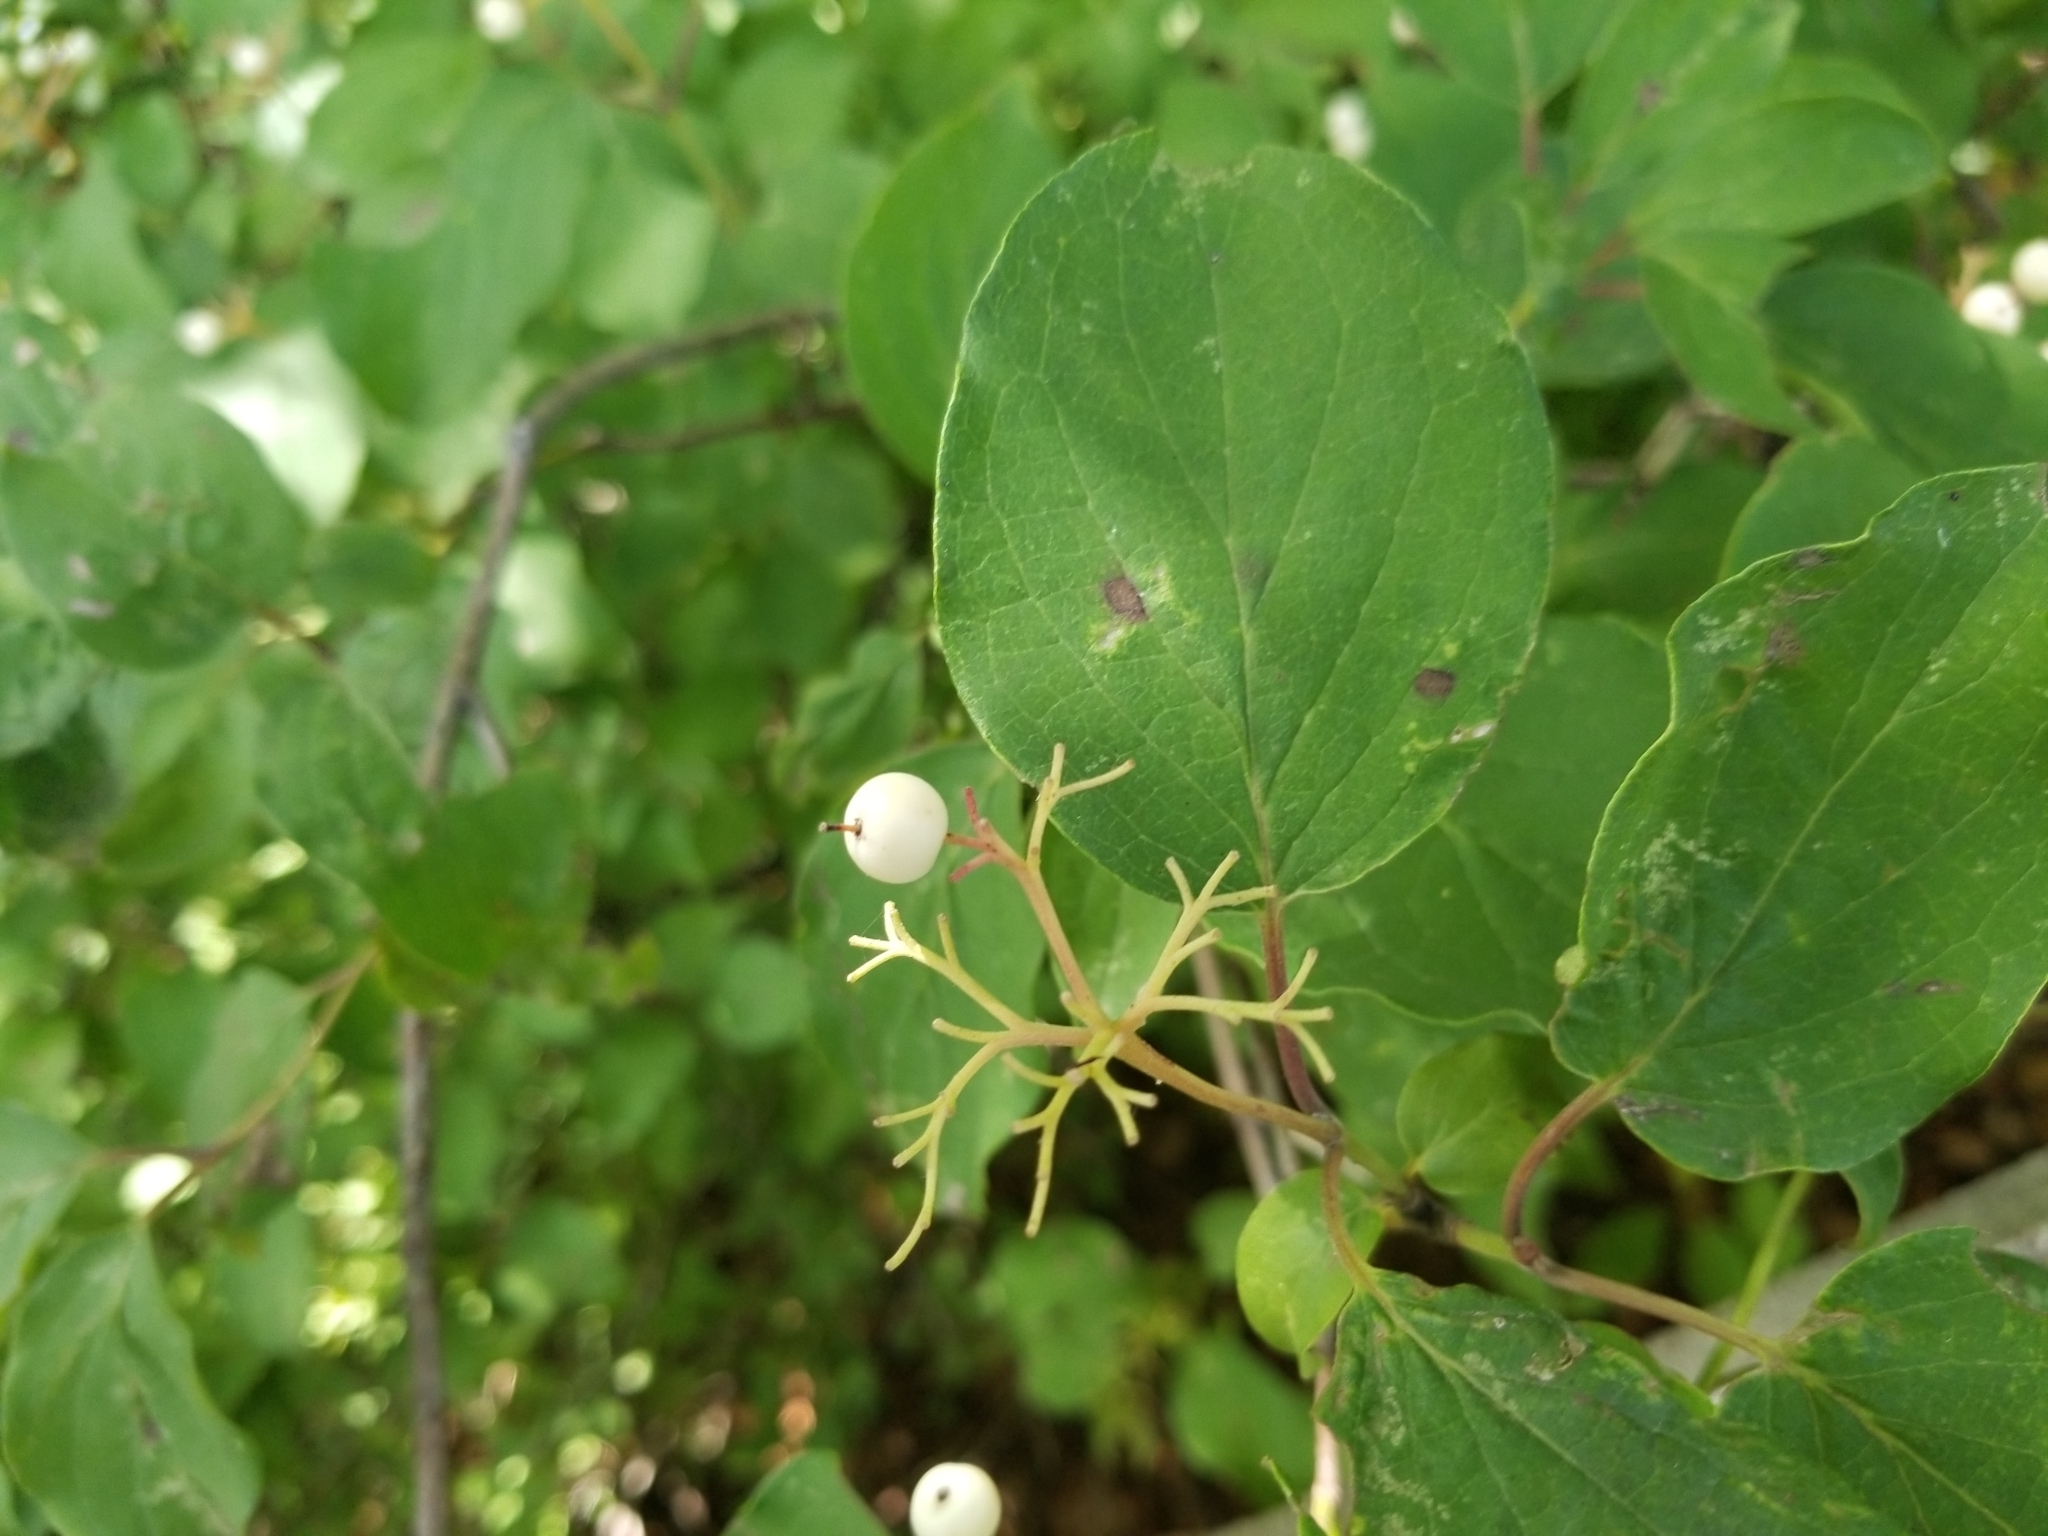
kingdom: Plantae
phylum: Tracheophyta
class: Magnoliopsida
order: Cornales
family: Cornaceae
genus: Cornus
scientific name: Cornus drummondii
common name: Rough-leaf dogwood
